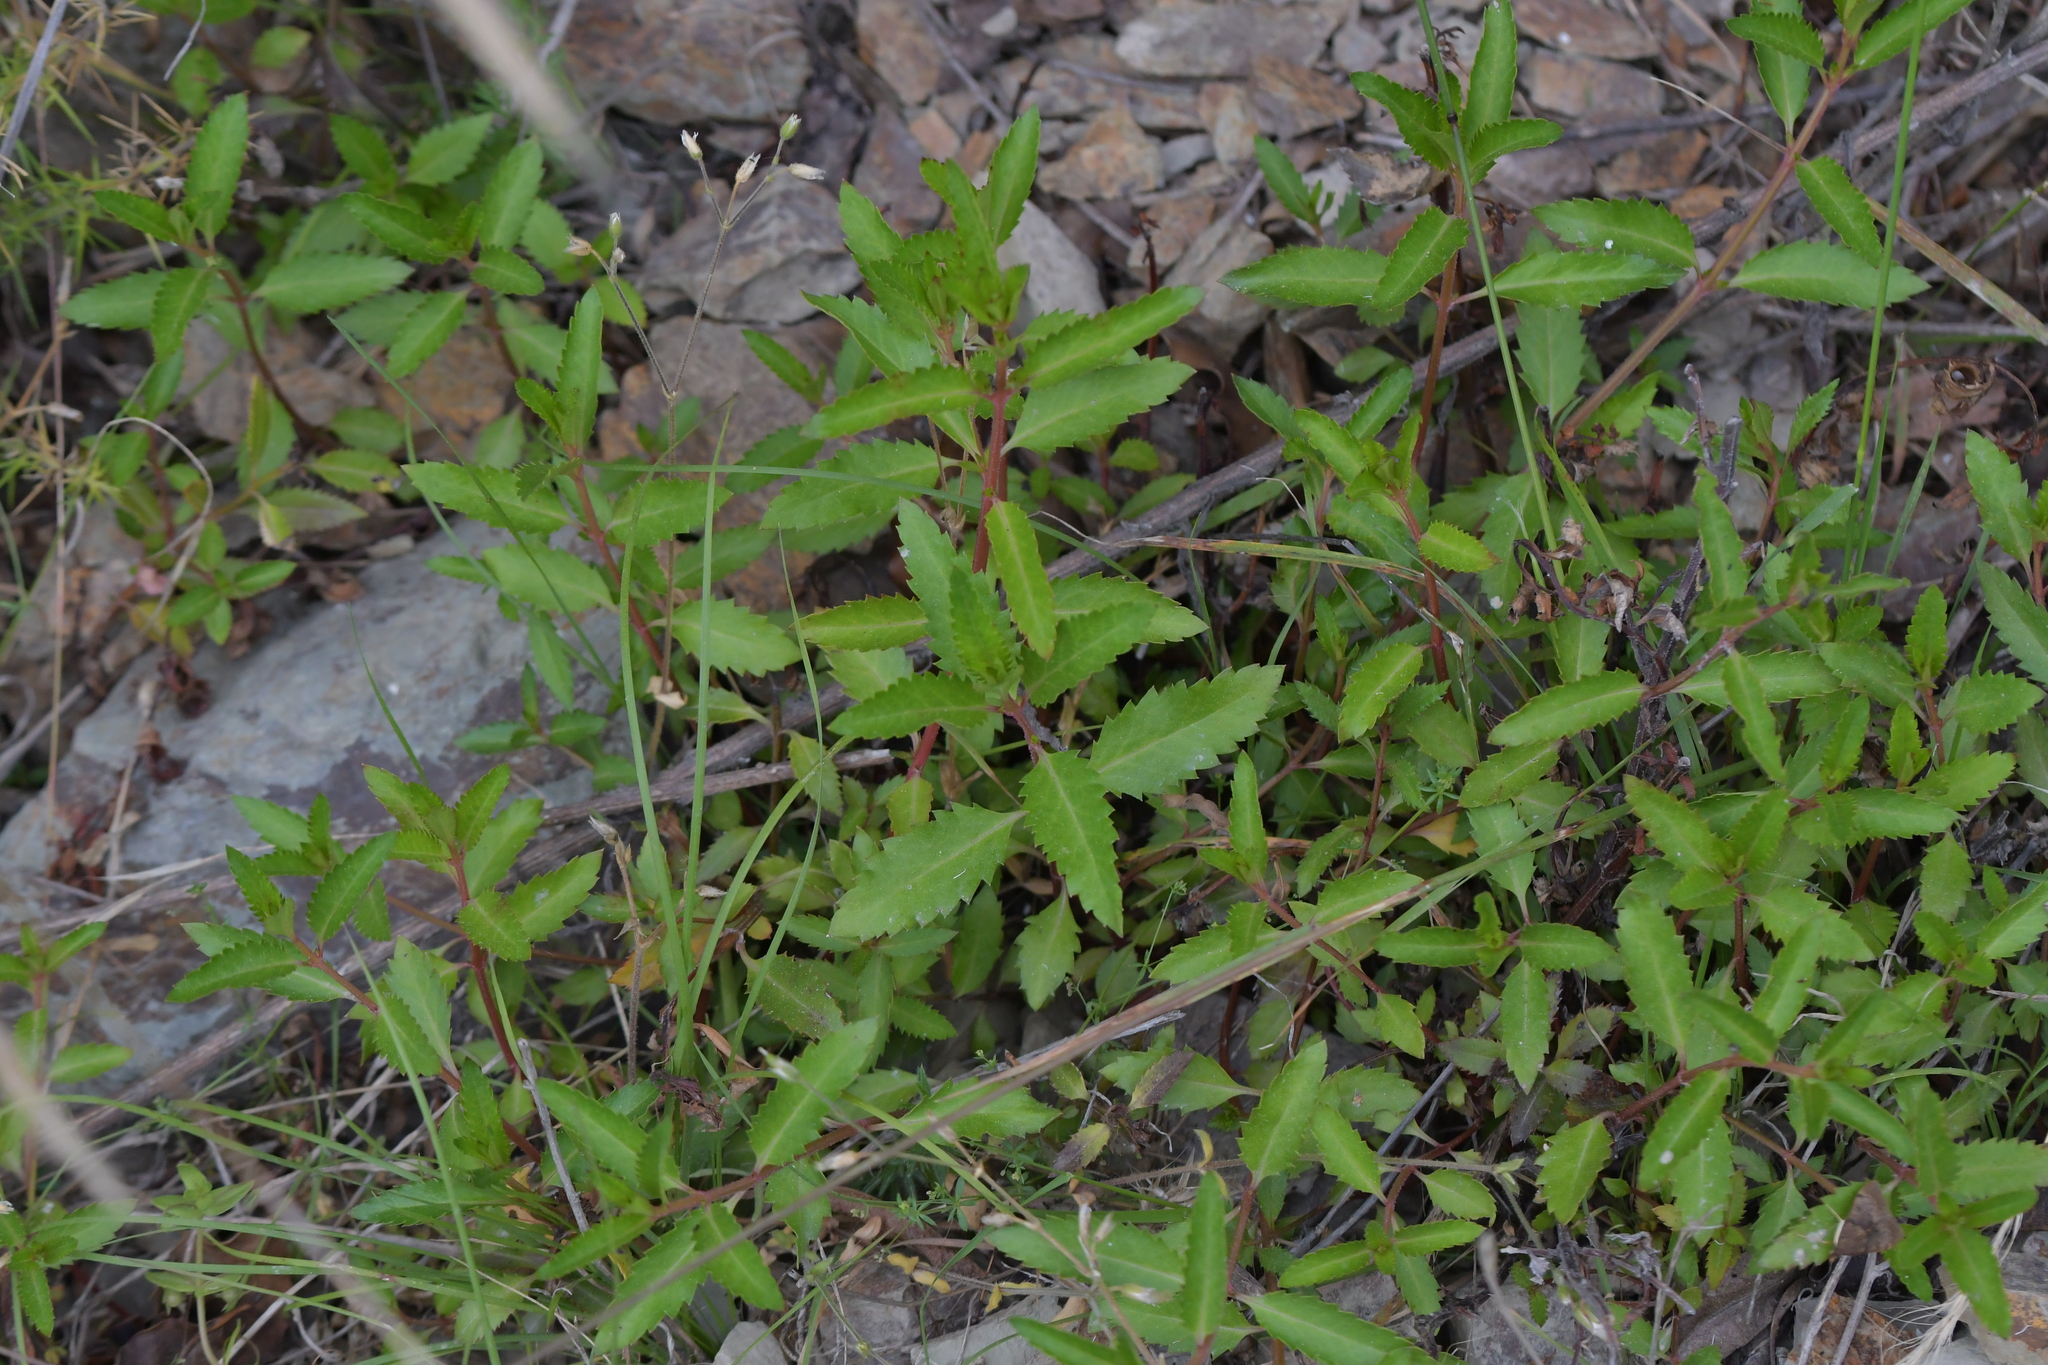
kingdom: Plantae
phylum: Tracheophyta
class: Magnoliopsida
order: Saxifragales
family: Haloragaceae
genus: Haloragis
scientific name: Haloragis erecta
